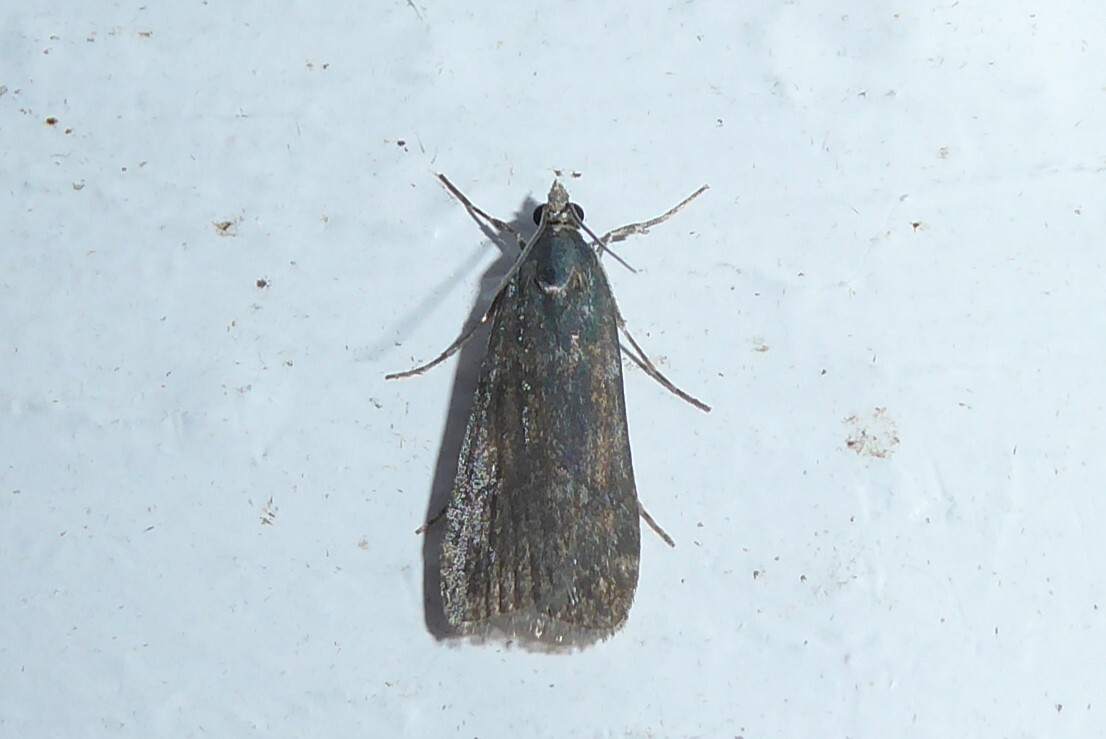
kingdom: Animalia
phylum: Arthropoda
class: Insecta
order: Lepidoptera
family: Crambidae
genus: Eudonia
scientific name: Eudonia cataxesta
